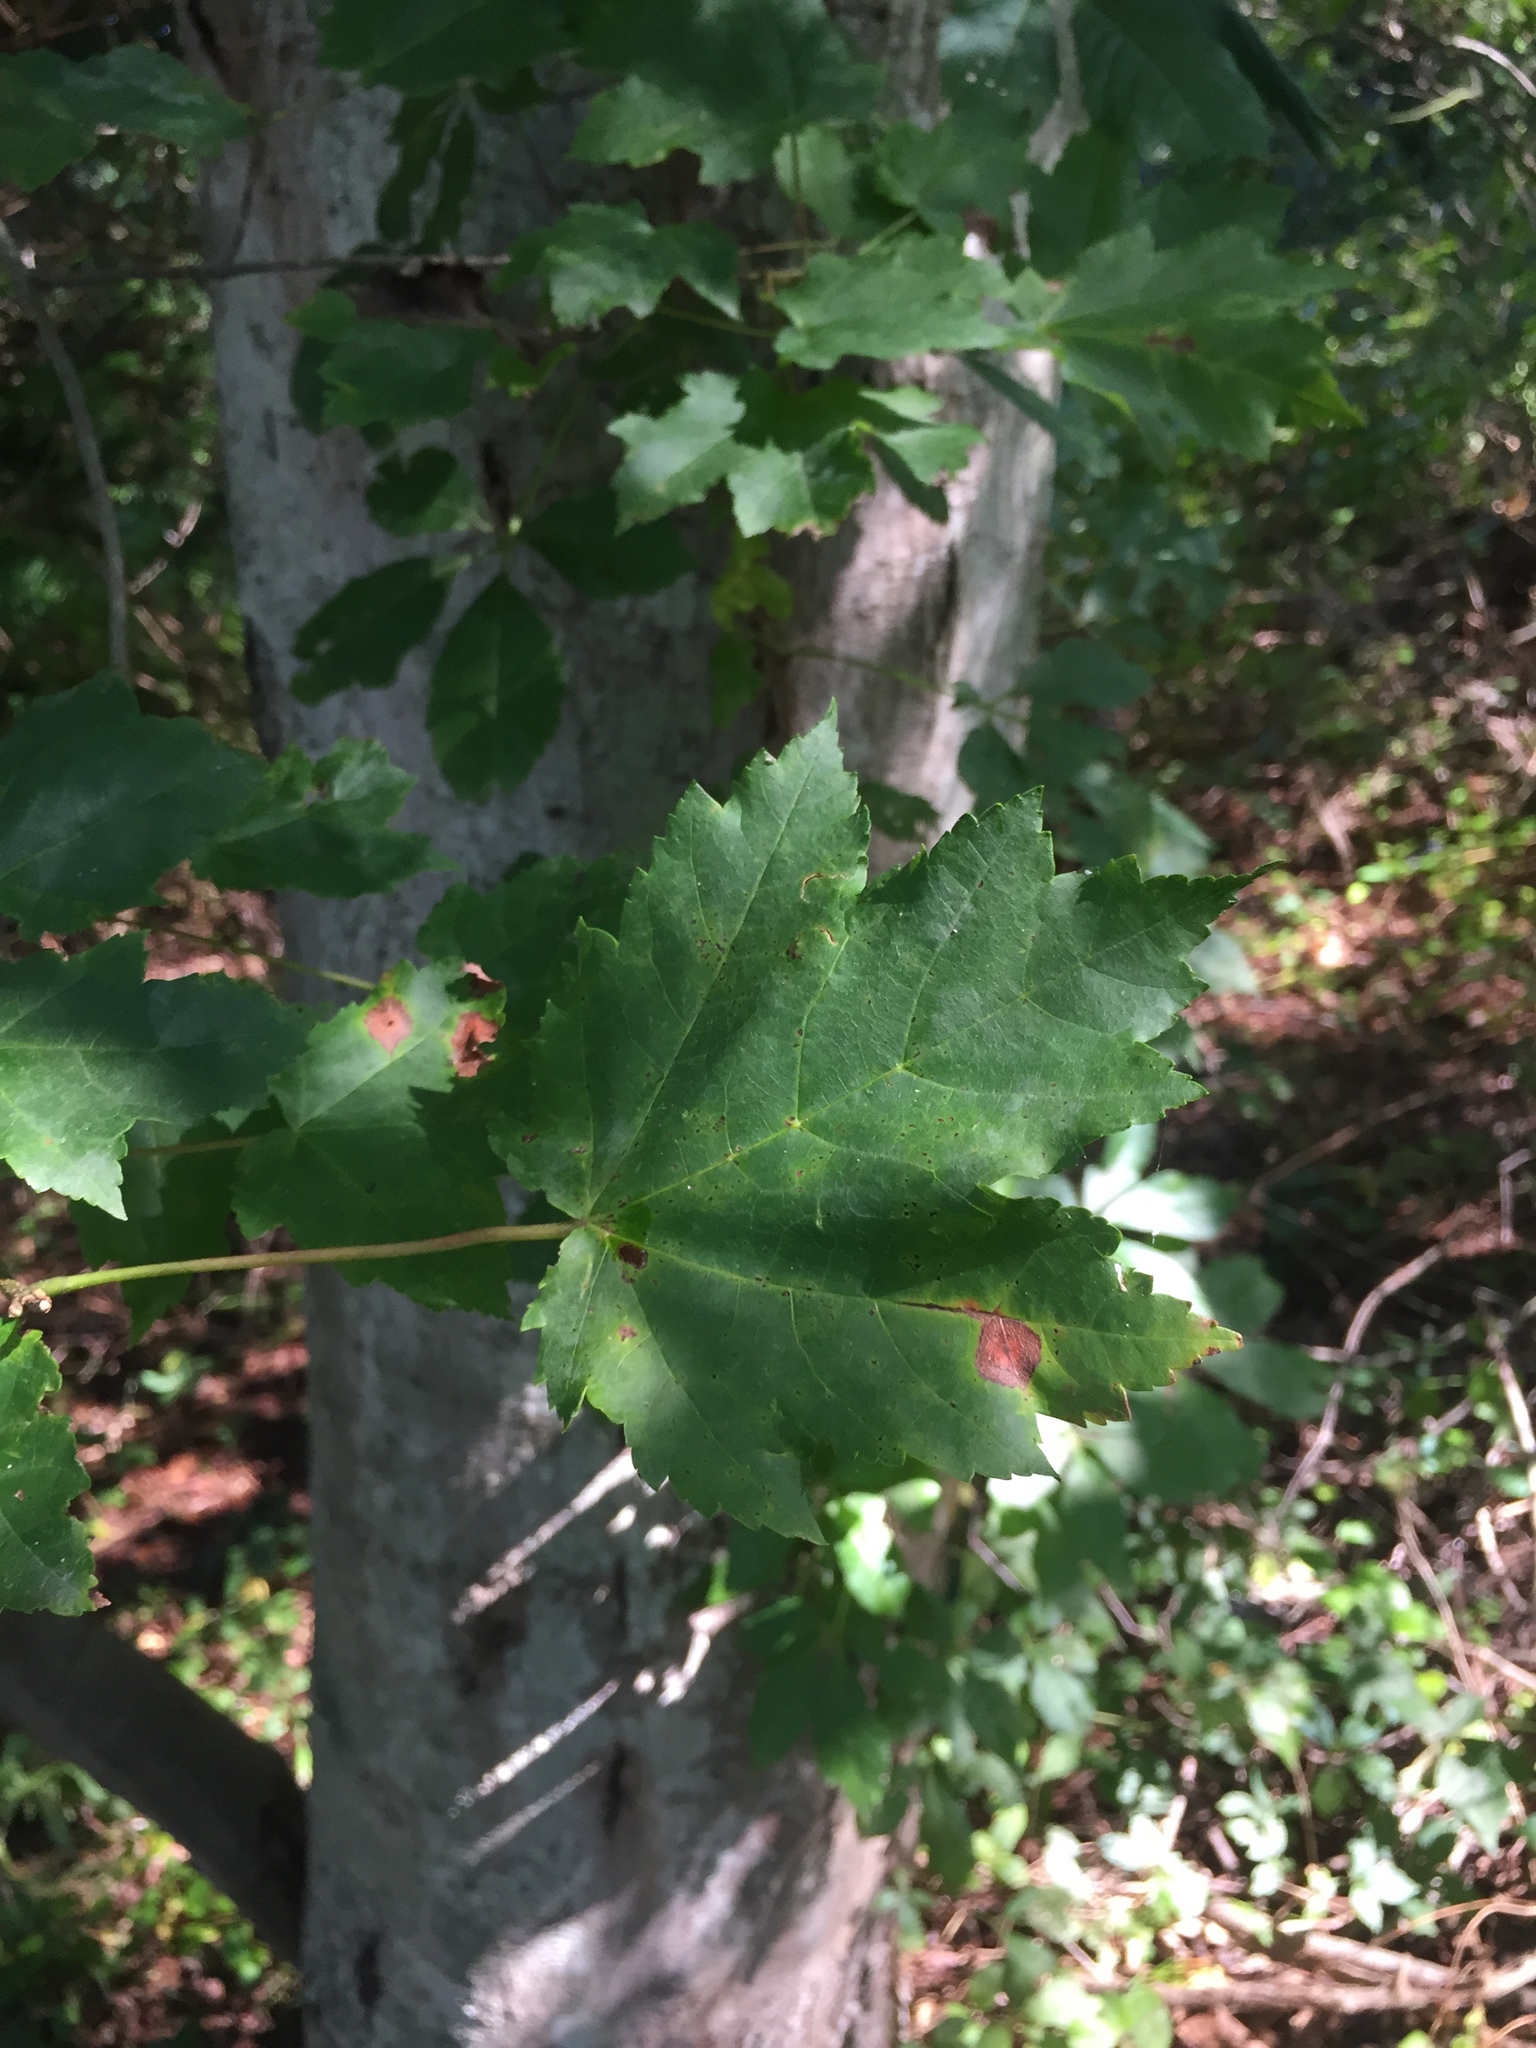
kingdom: Plantae
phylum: Tracheophyta
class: Magnoliopsida
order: Sapindales
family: Sapindaceae
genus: Acer
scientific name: Acer rubrum
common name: Red maple
